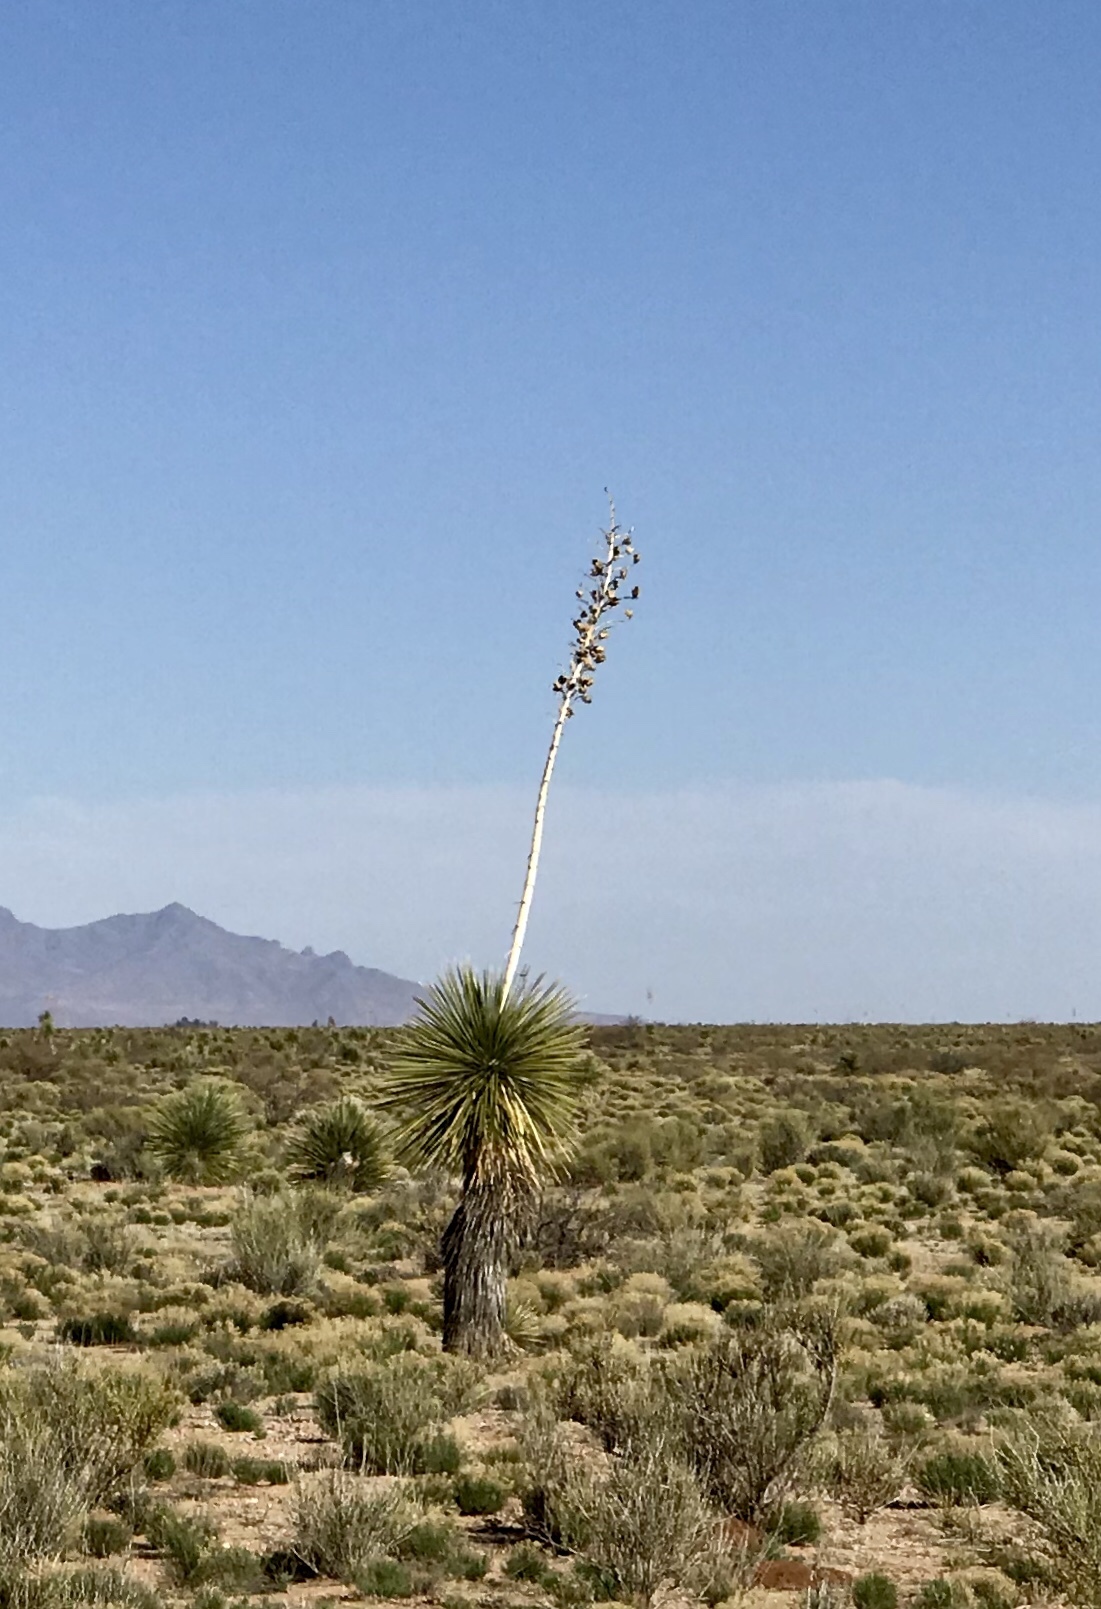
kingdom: Plantae
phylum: Tracheophyta
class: Liliopsida
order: Asparagales
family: Asparagaceae
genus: Yucca
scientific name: Yucca elata
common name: Palmella
